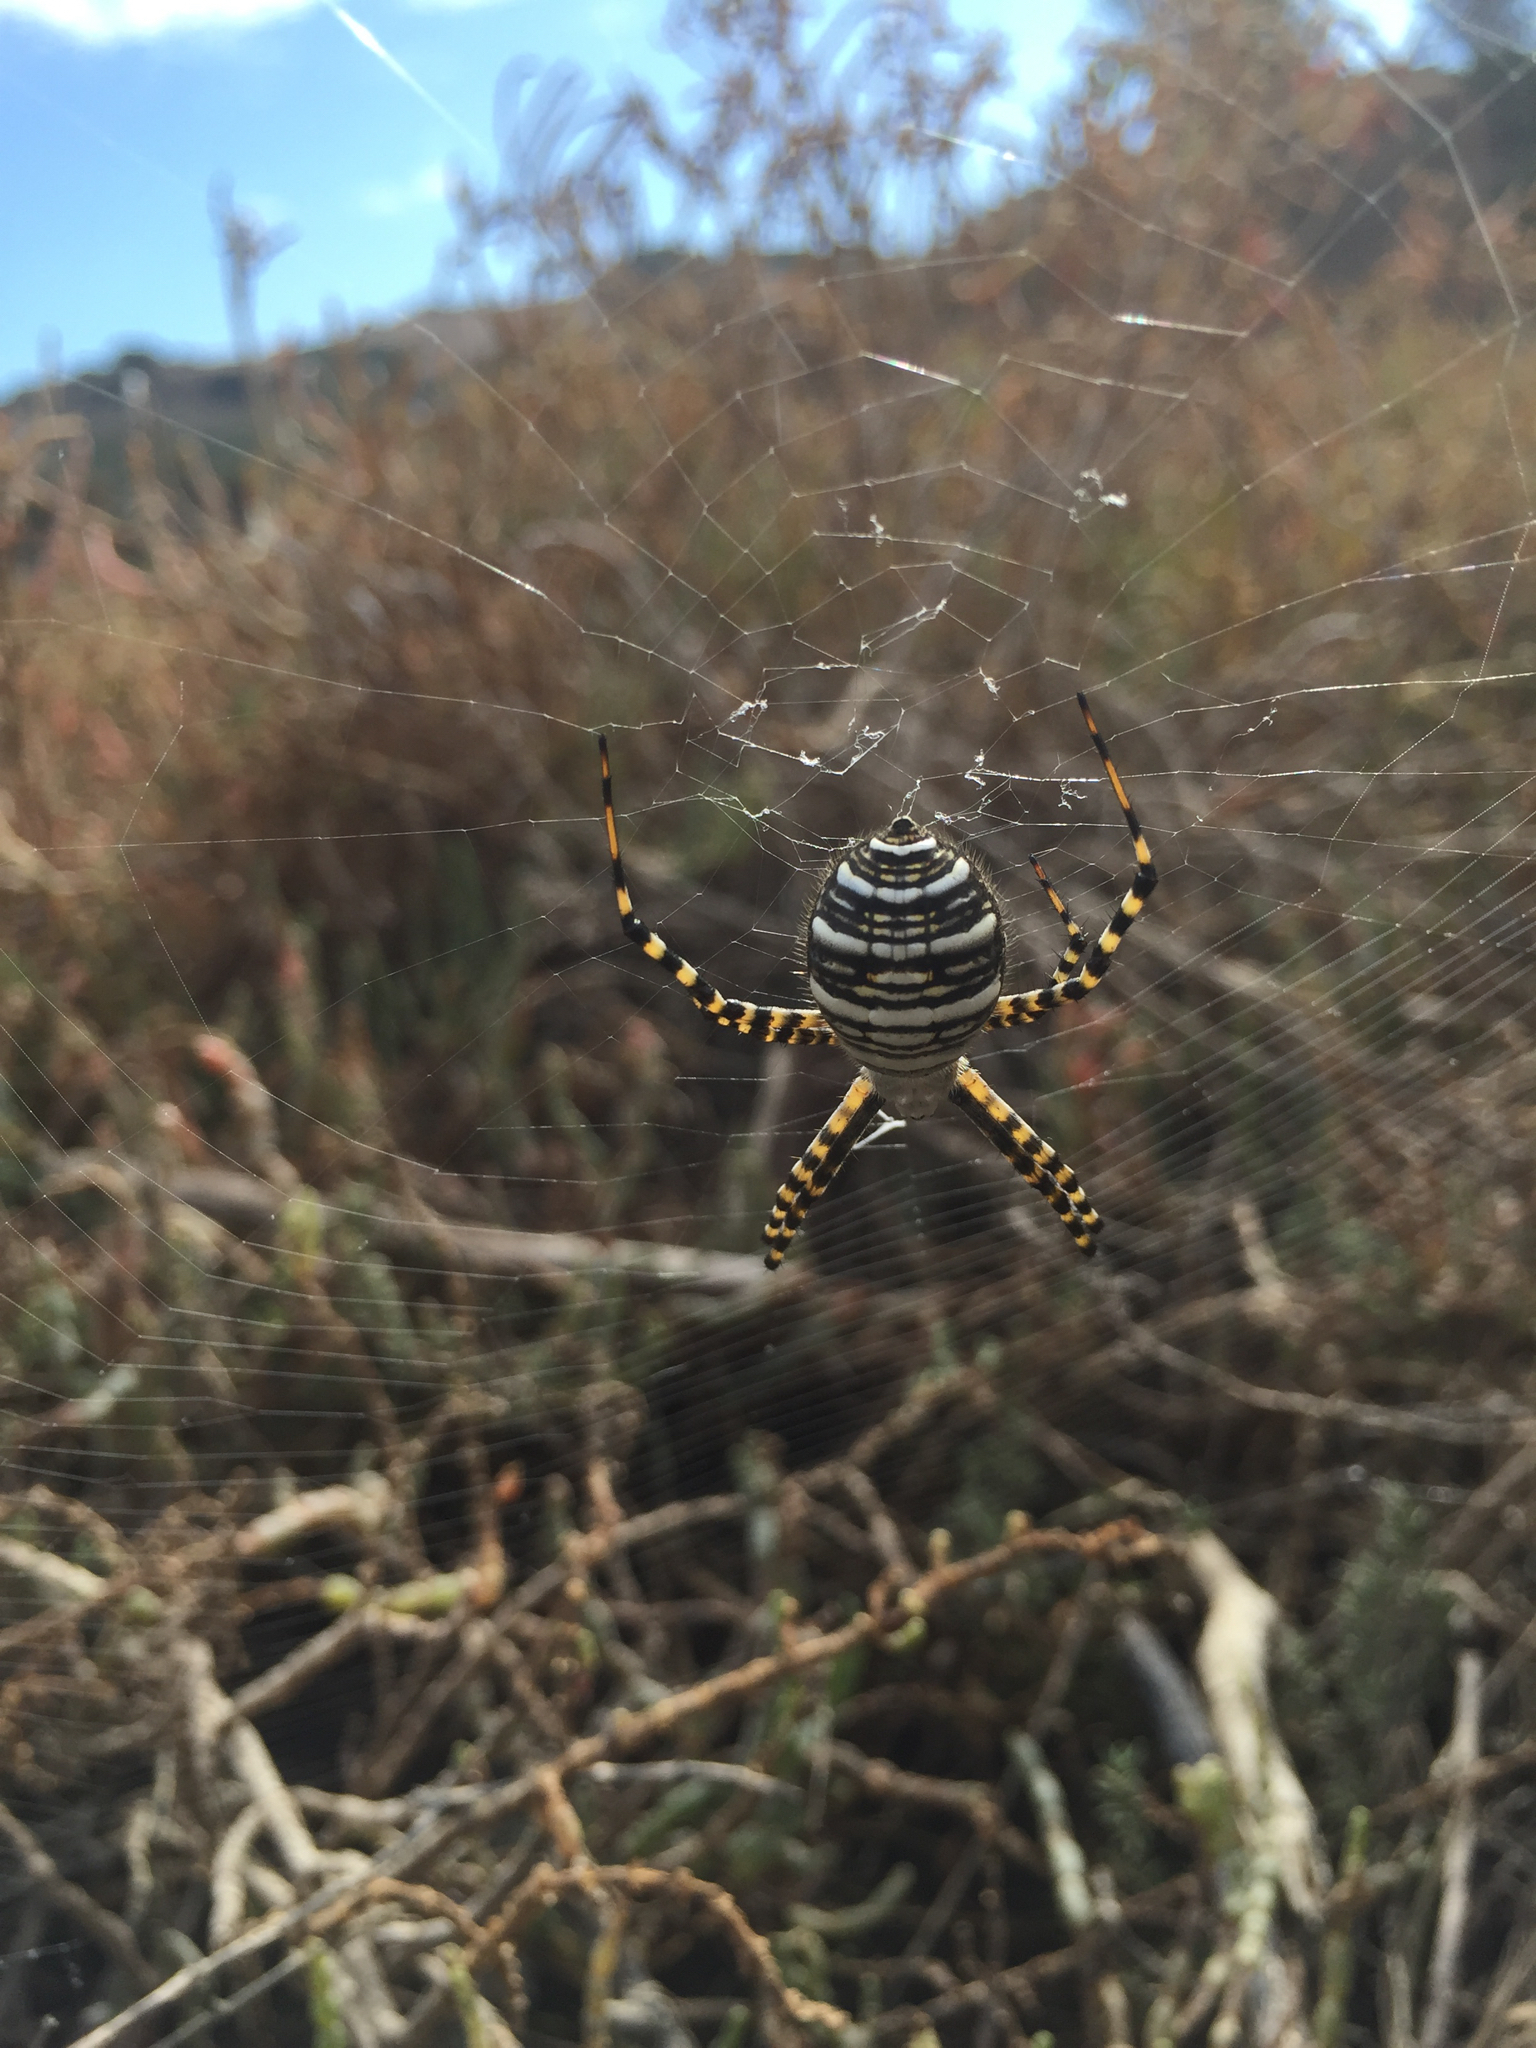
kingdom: Animalia
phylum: Arthropoda
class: Arachnida
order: Araneae
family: Araneidae
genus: Argiope
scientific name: Argiope trifasciata
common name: Banded garden spider
